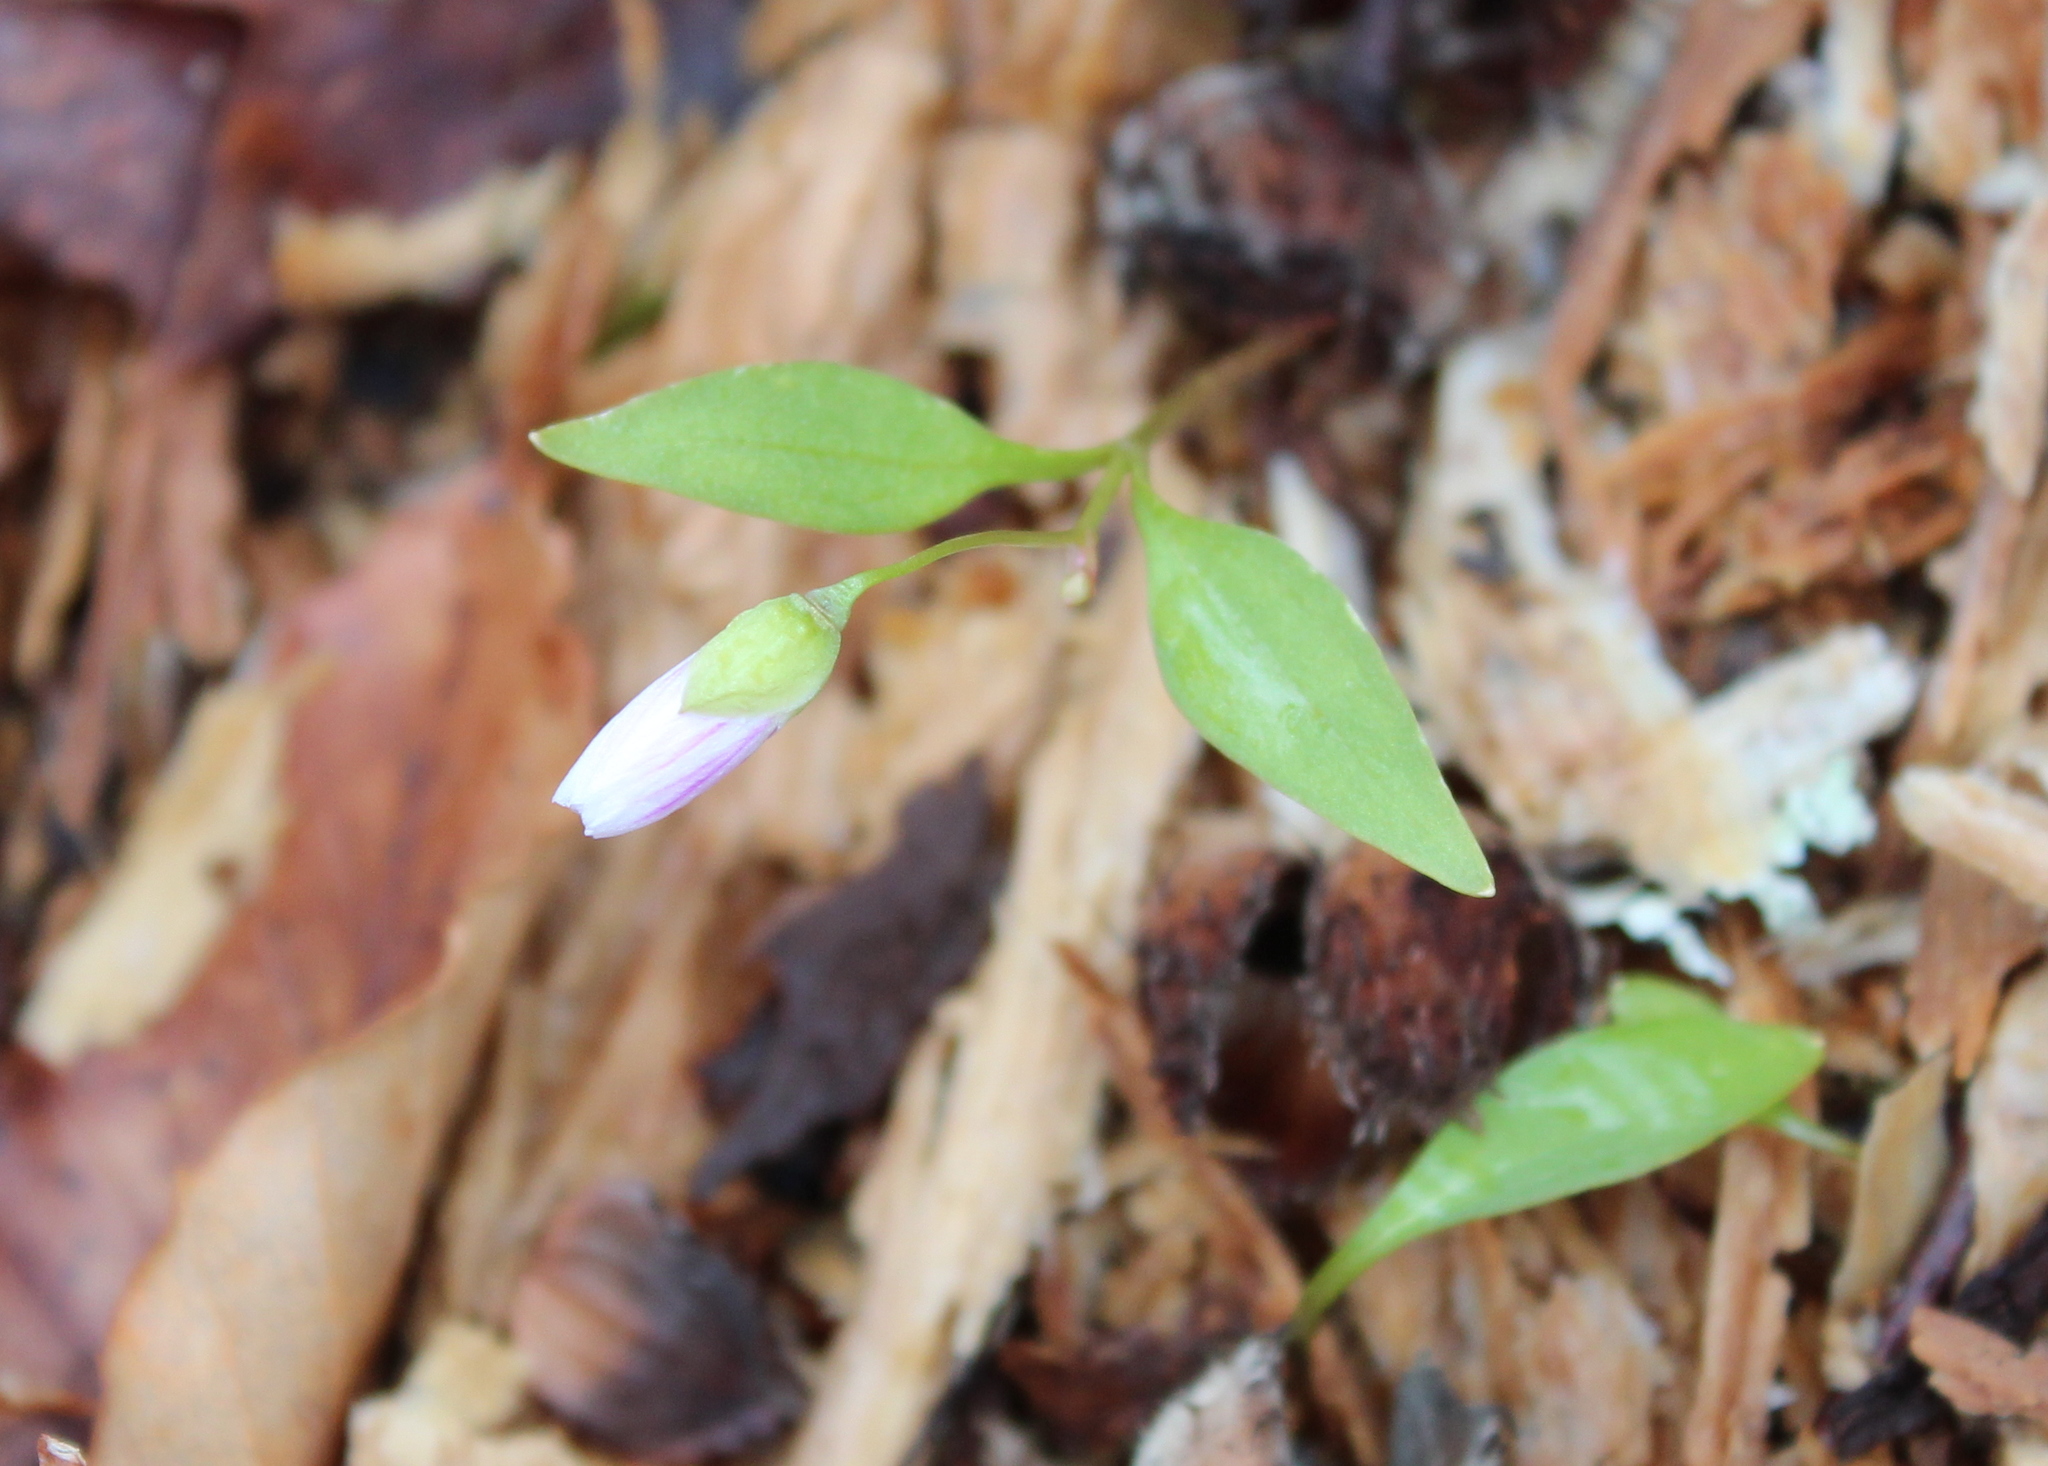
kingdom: Plantae
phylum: Tracheophyta
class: Magnoliopsida
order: Caryophyllales
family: Montiaceae
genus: Claytonia
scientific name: Claytonia caroliniana
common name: Carolina spring beauty
